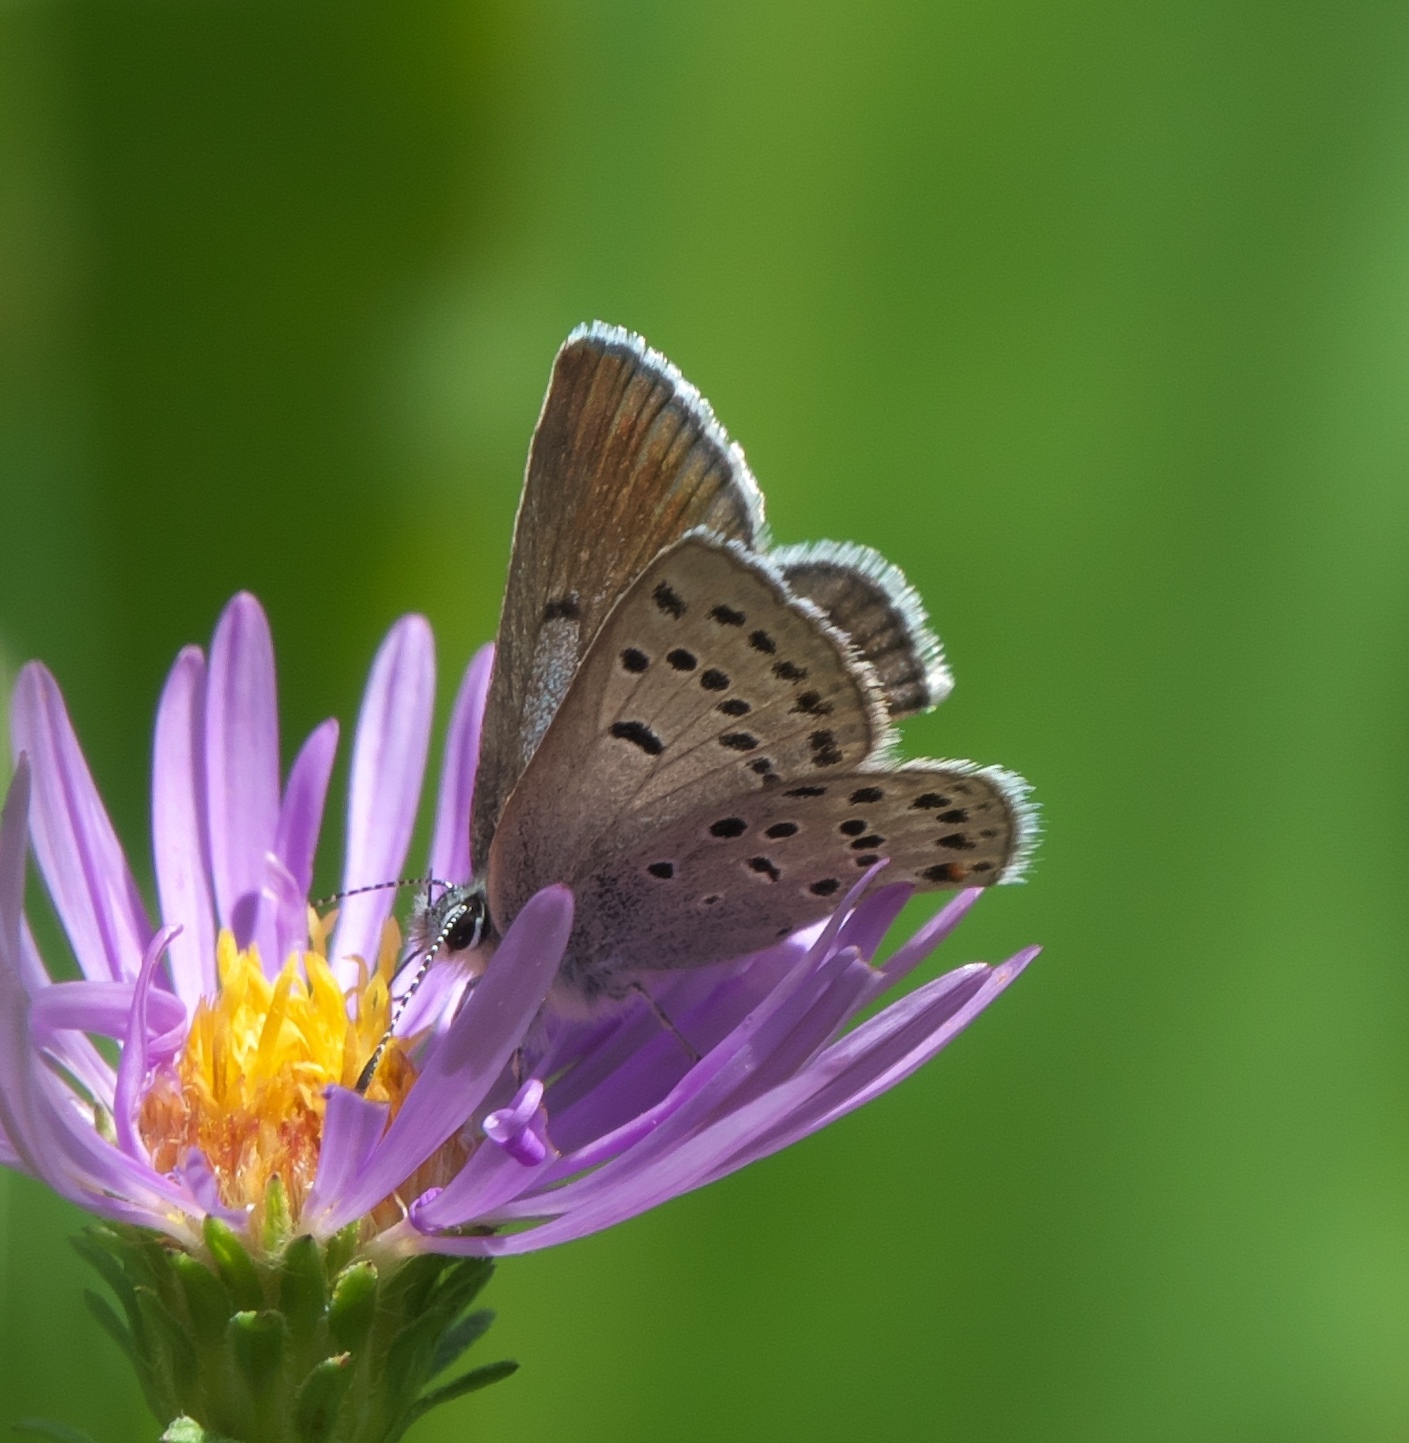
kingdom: Animalia
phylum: Arthropoda
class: Insecta
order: Lepidoptera
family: Lycaenidae
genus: Icaricia
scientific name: Icaricia saepiolus
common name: Greenish blue
